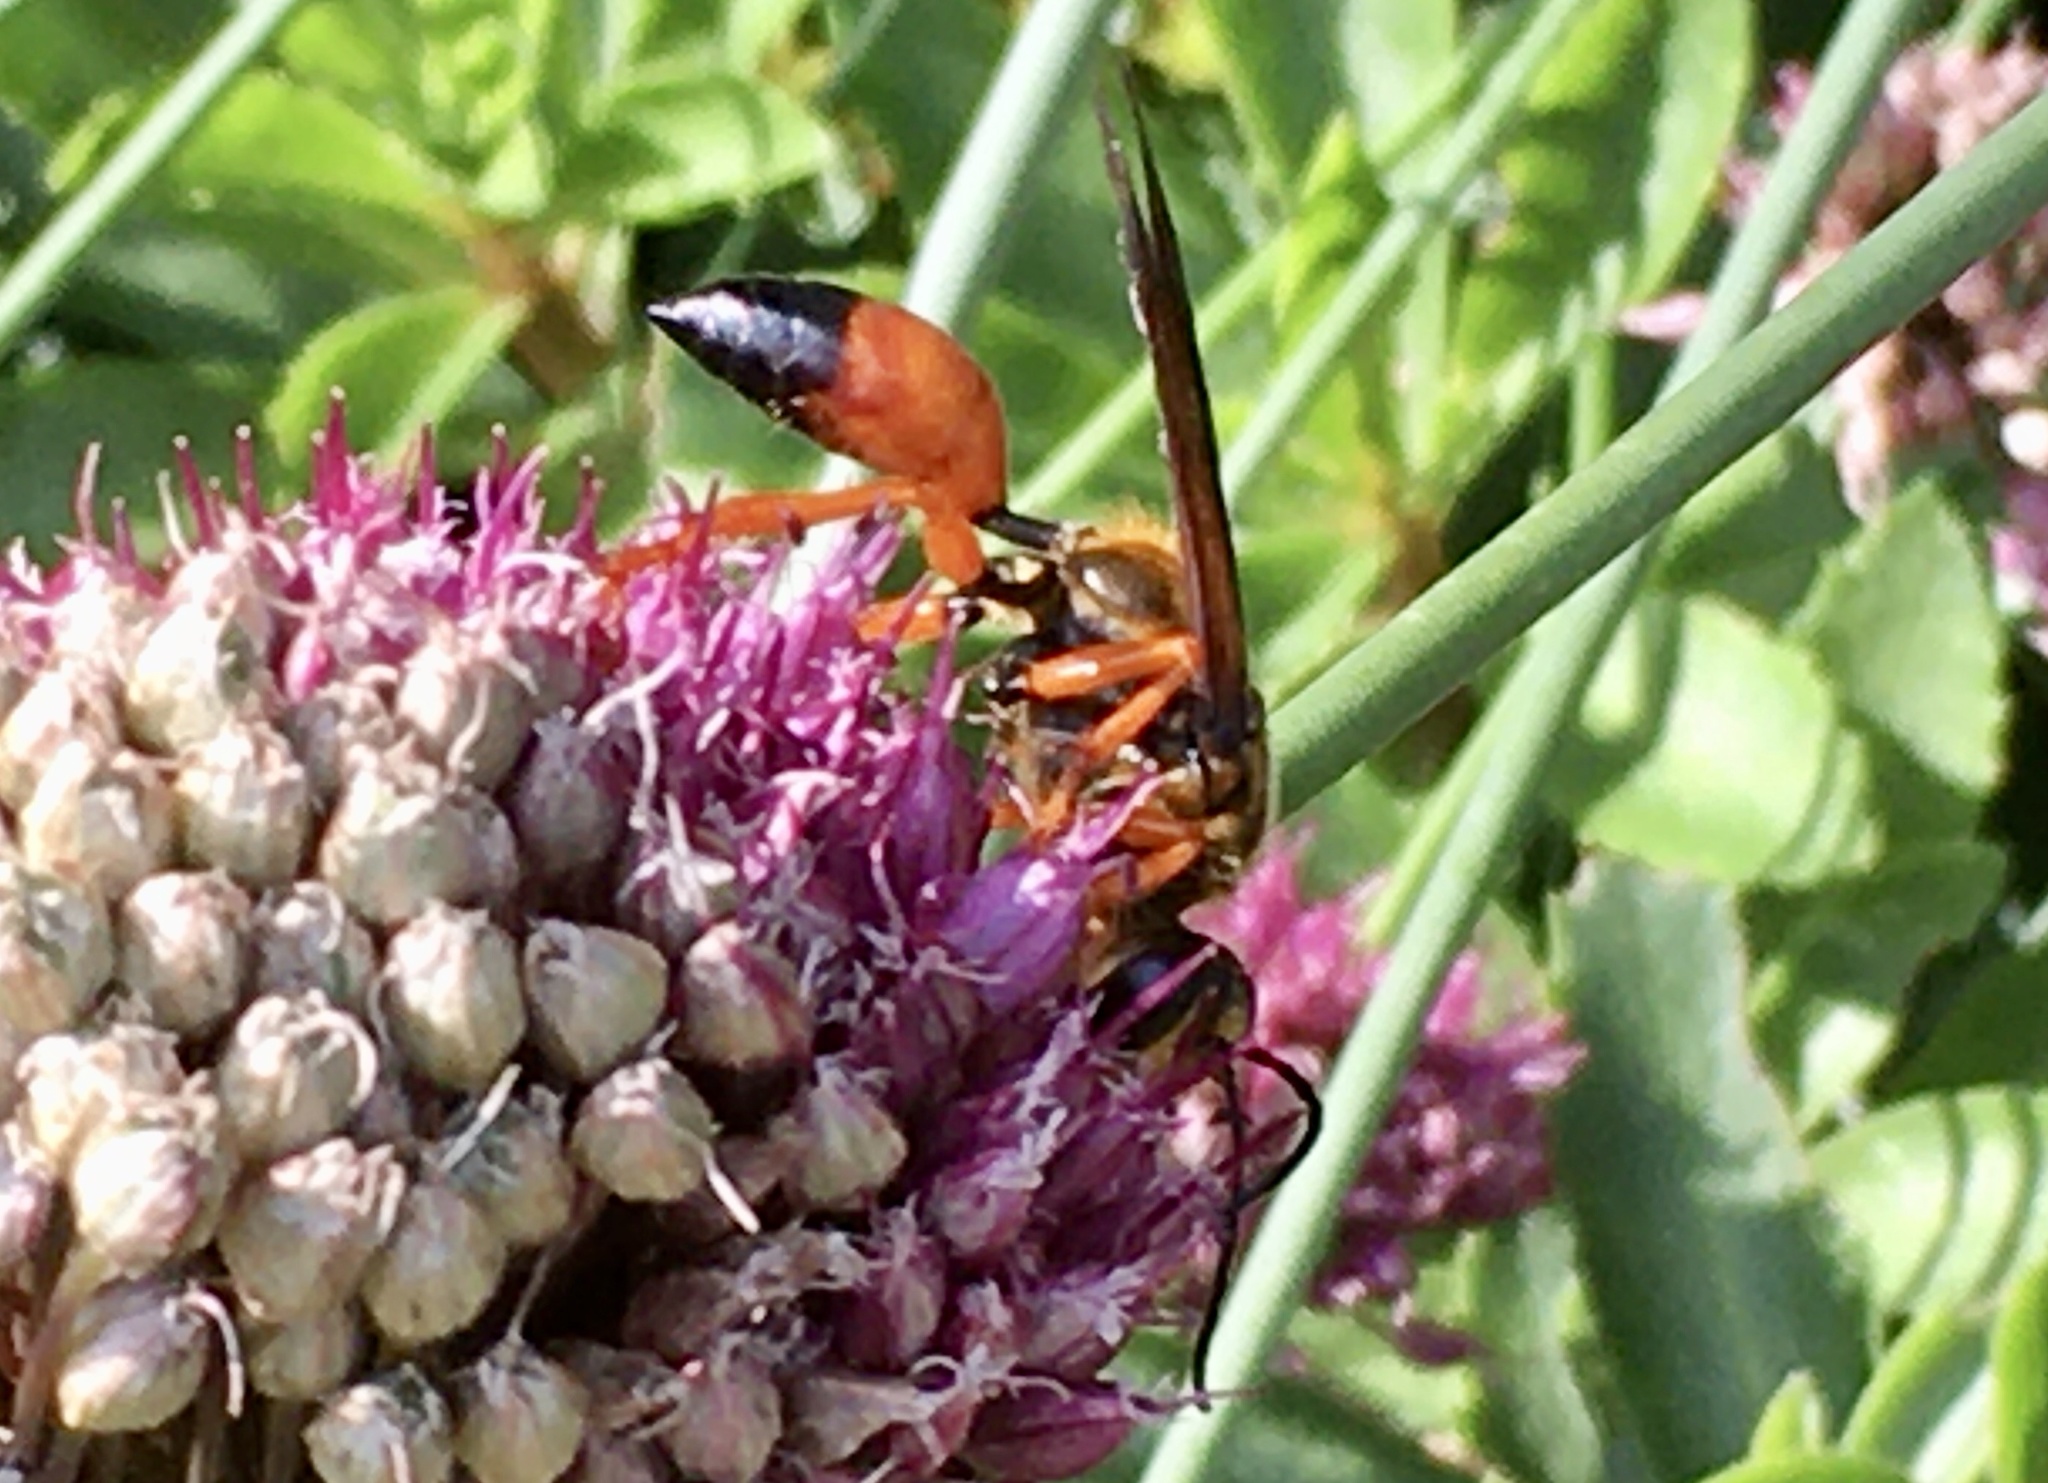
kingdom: Animalia
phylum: Arthropoda
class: Insecta
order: Hymenoptera
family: Sphecidae
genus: Sphex
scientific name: Sphex ichneumoneus
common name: Great golden digger wasp
